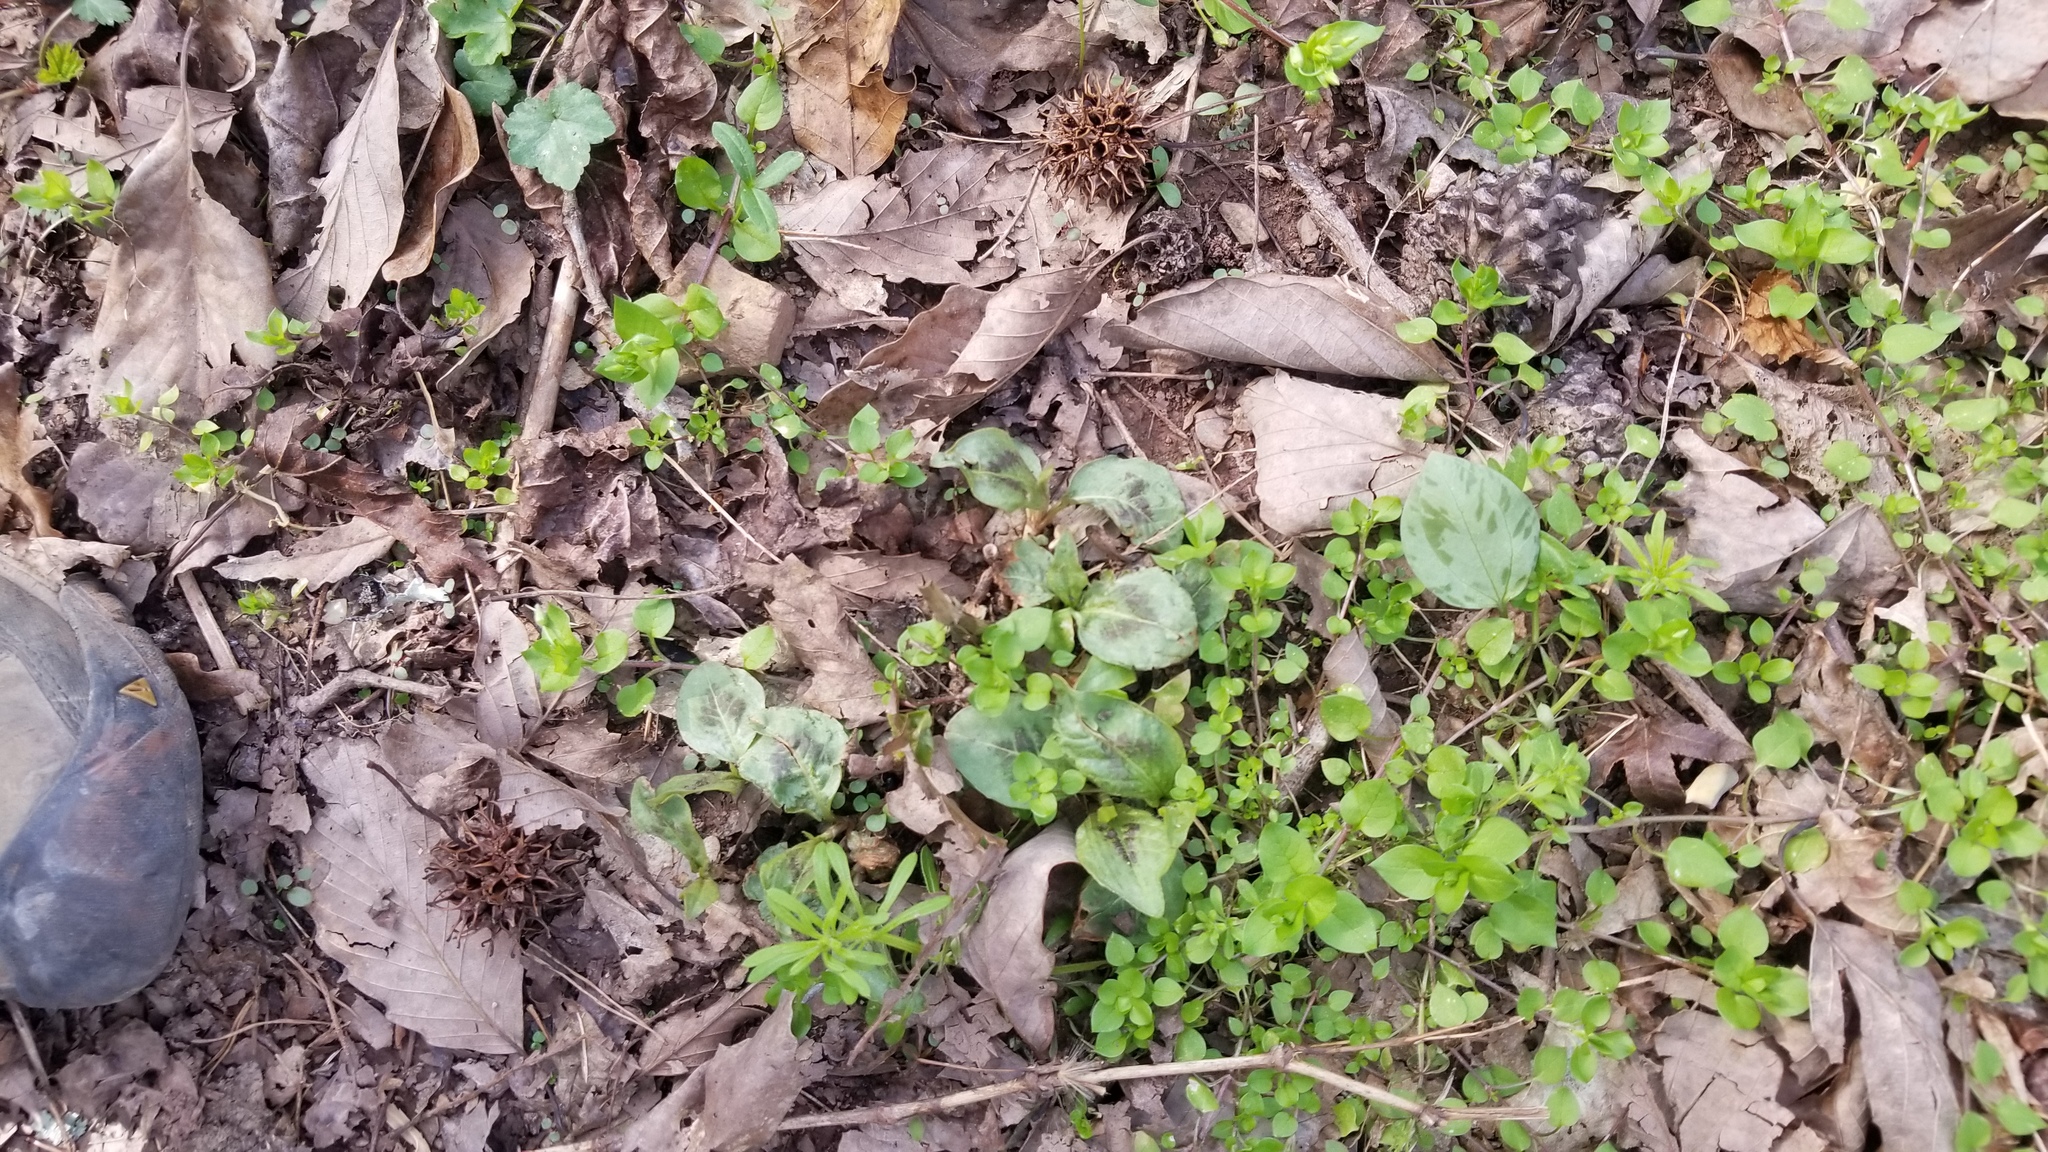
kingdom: Plantae
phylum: Tracheophyta
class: Magnoliopsida
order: Caryophyllales
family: Polygonaceae
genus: Persicaria
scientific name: Persicaria virginiana
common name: Jumpseed
